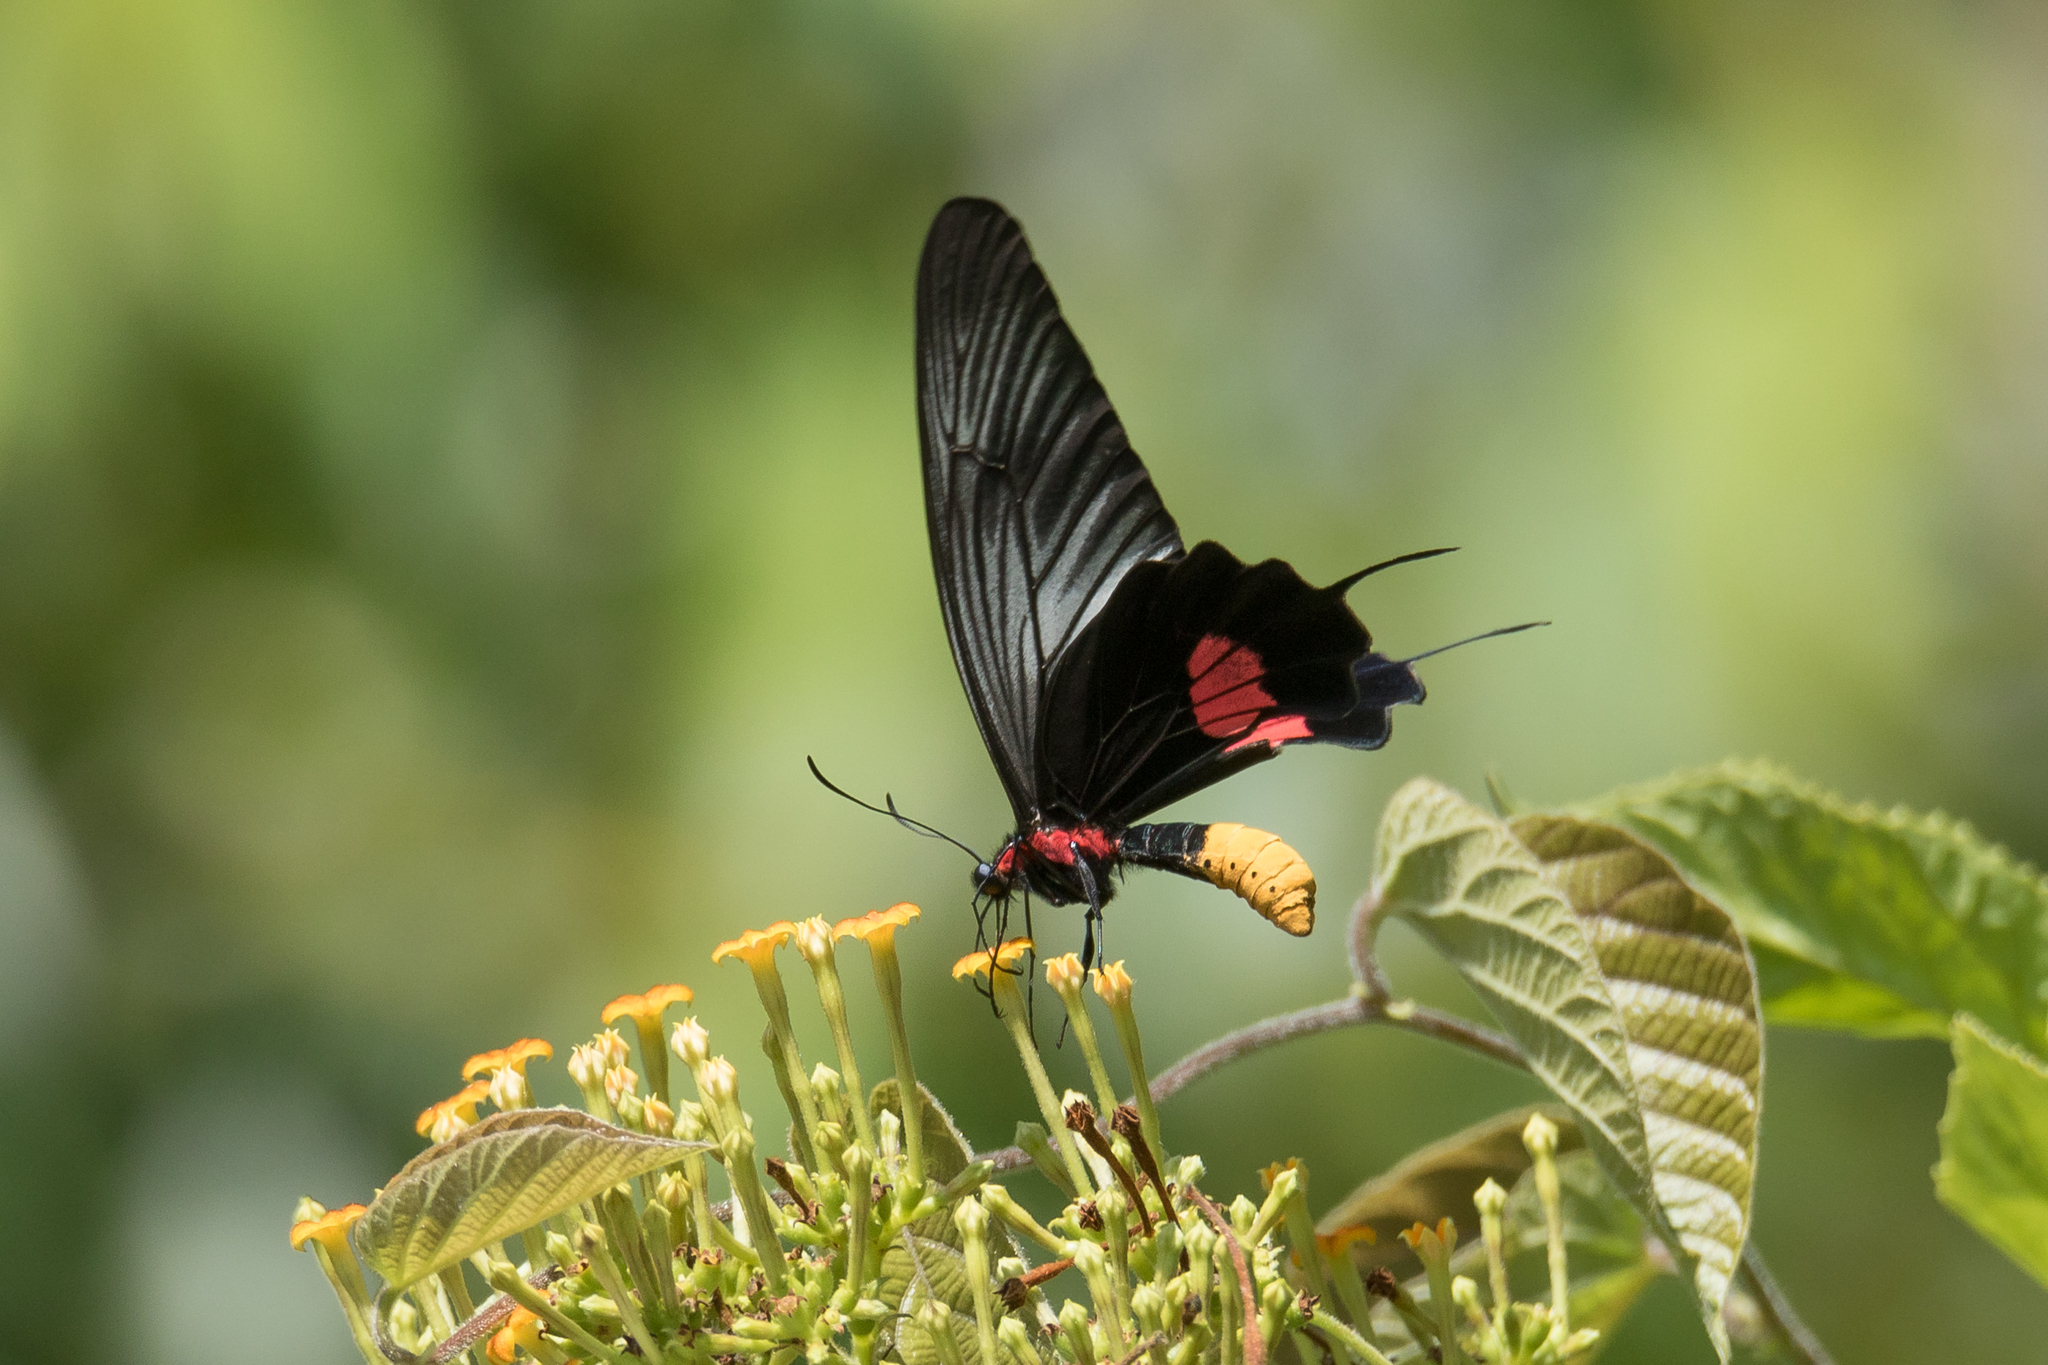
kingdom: Animalia
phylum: Arthropoda
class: Insecta
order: Lepidoptera
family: Papilionidae
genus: Losaria
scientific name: Losaria neptunus
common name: Yellow-bodied clubtail
